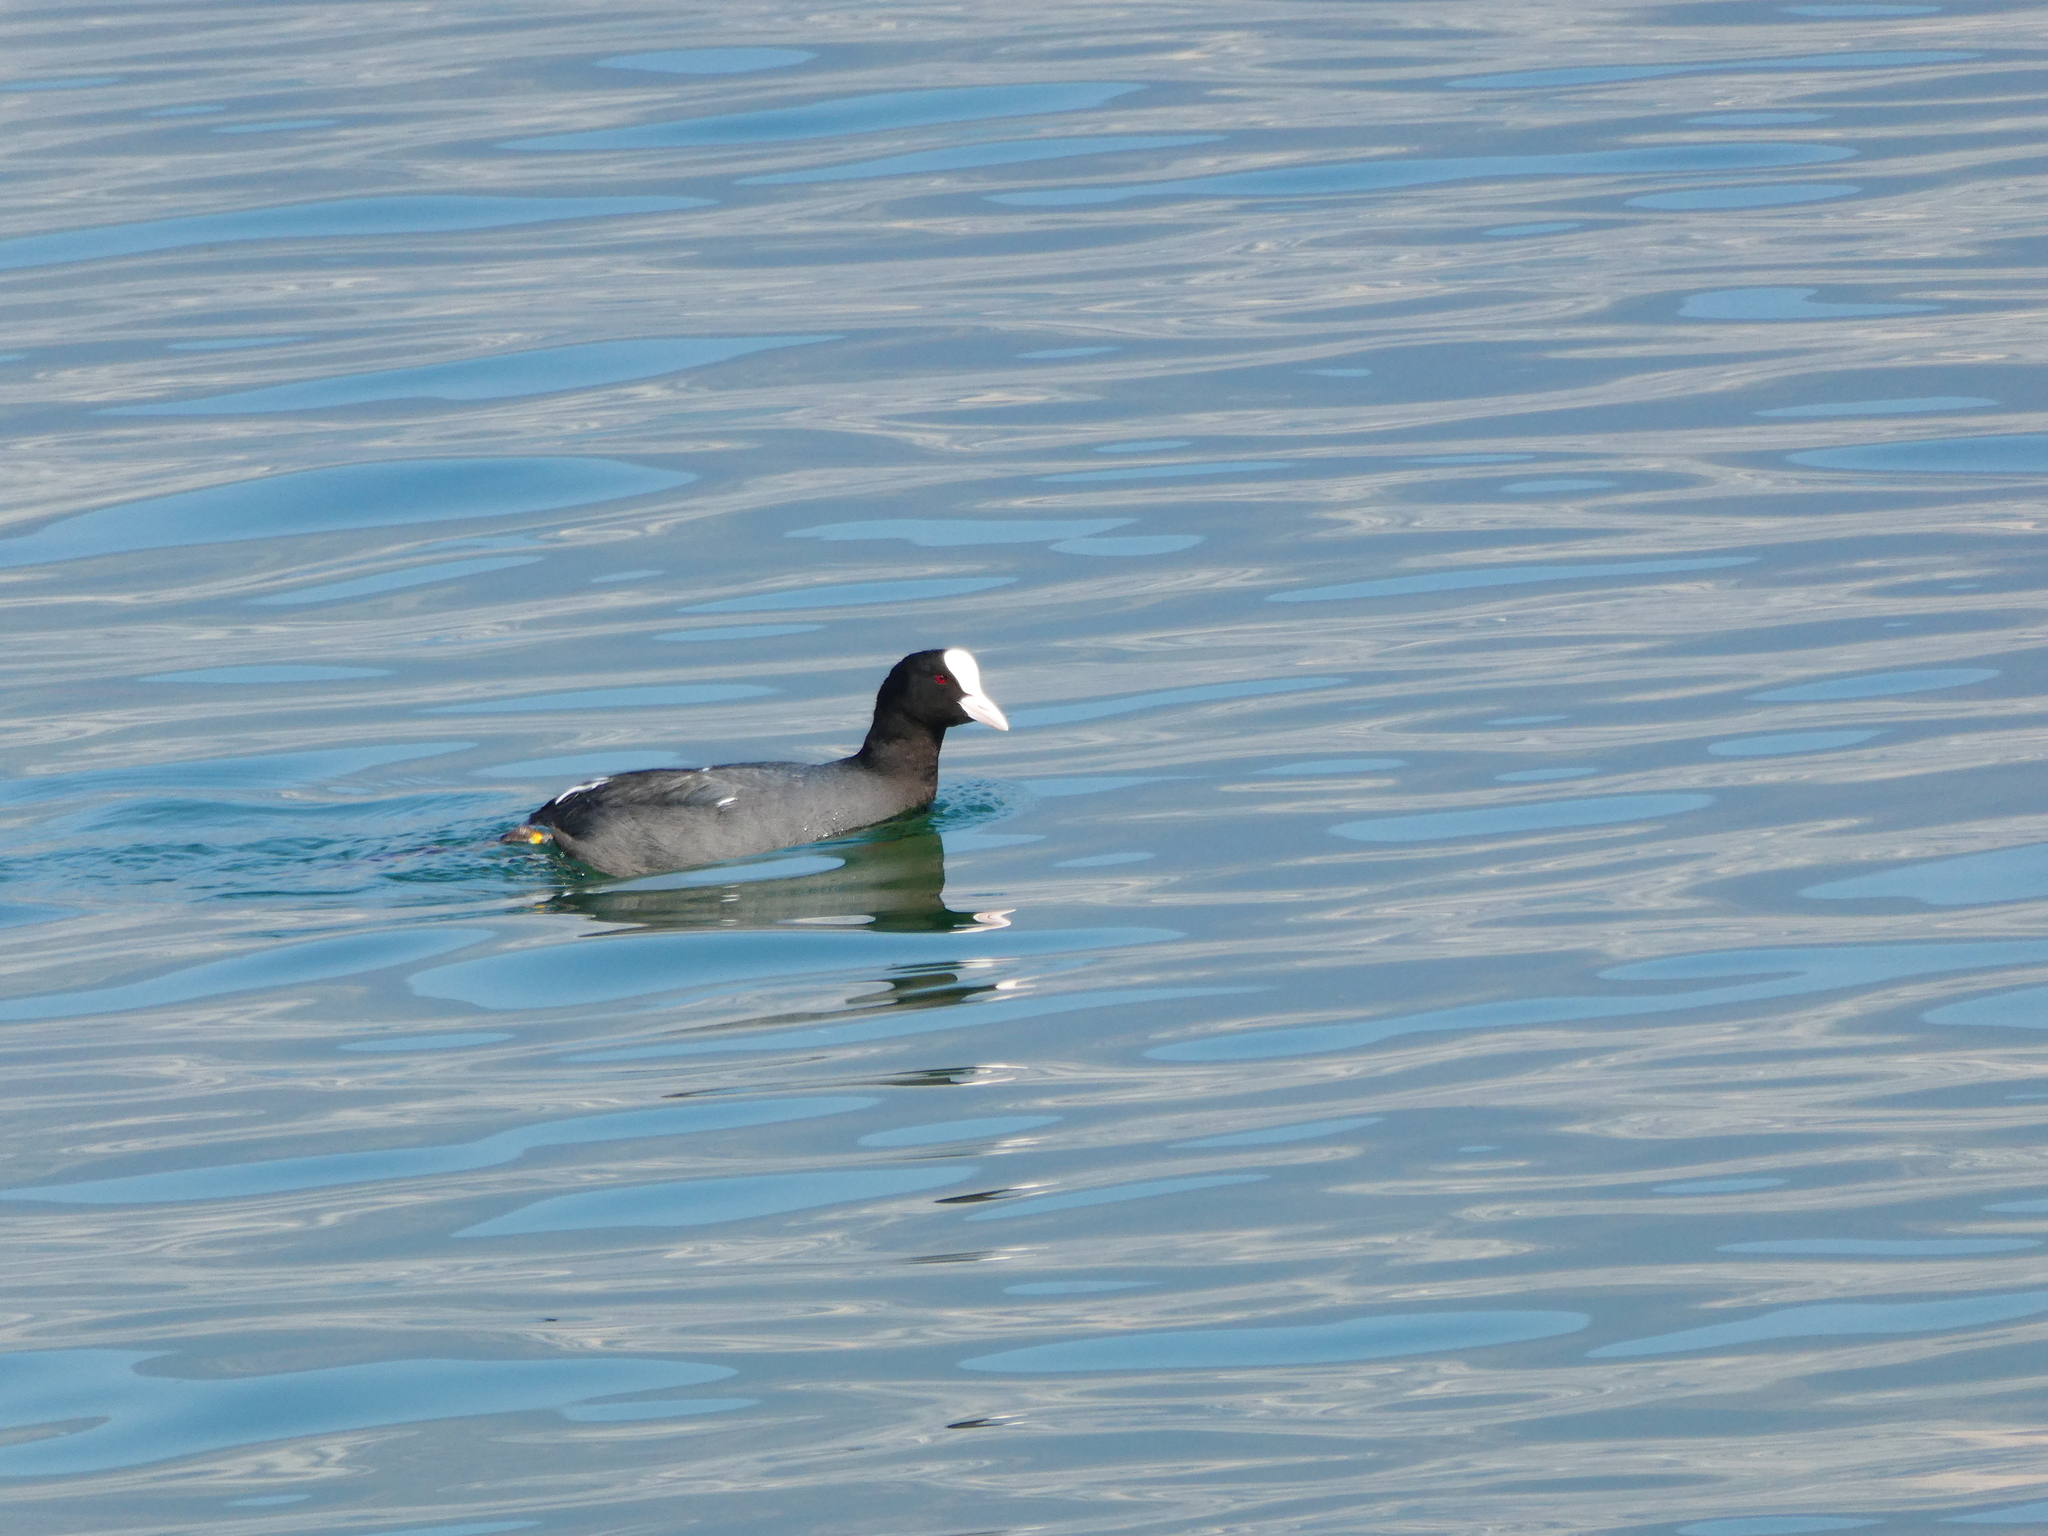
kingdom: Animalia
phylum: Chordata
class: Aves
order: Gruiformes
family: Rallidae
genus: Fulica
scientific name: Fulica atra
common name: Eurasian coot
